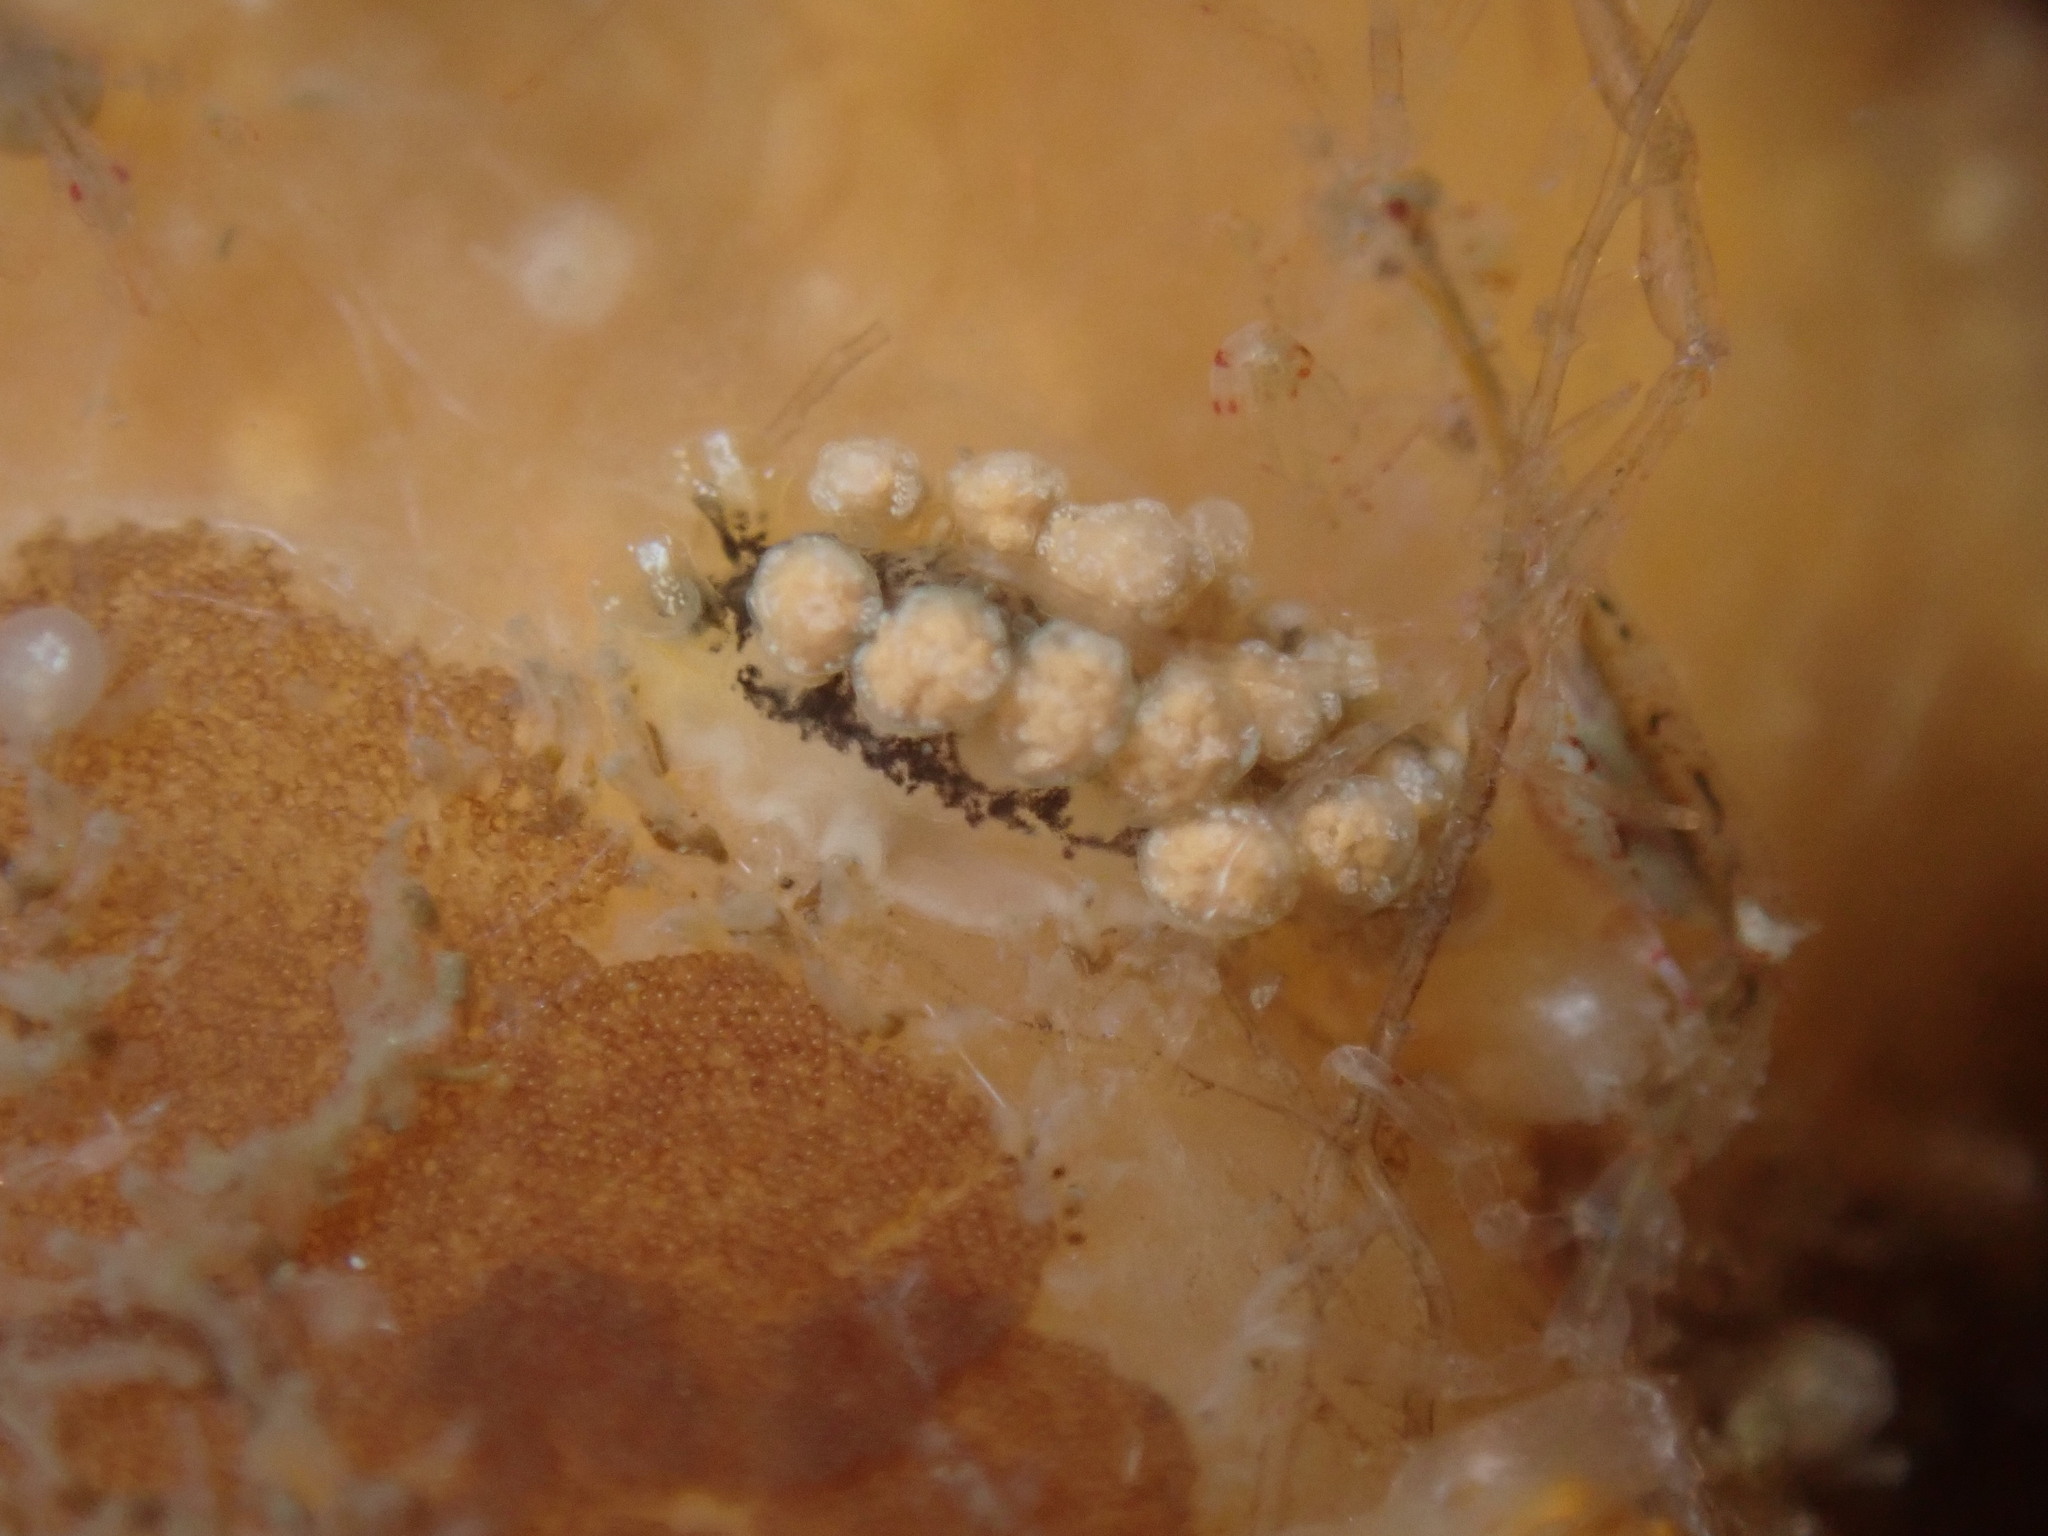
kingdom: Animalia
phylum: Mollusca
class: Gastropoda
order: Nudibranchia
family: Dotidae
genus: Doto
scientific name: Doto kya
